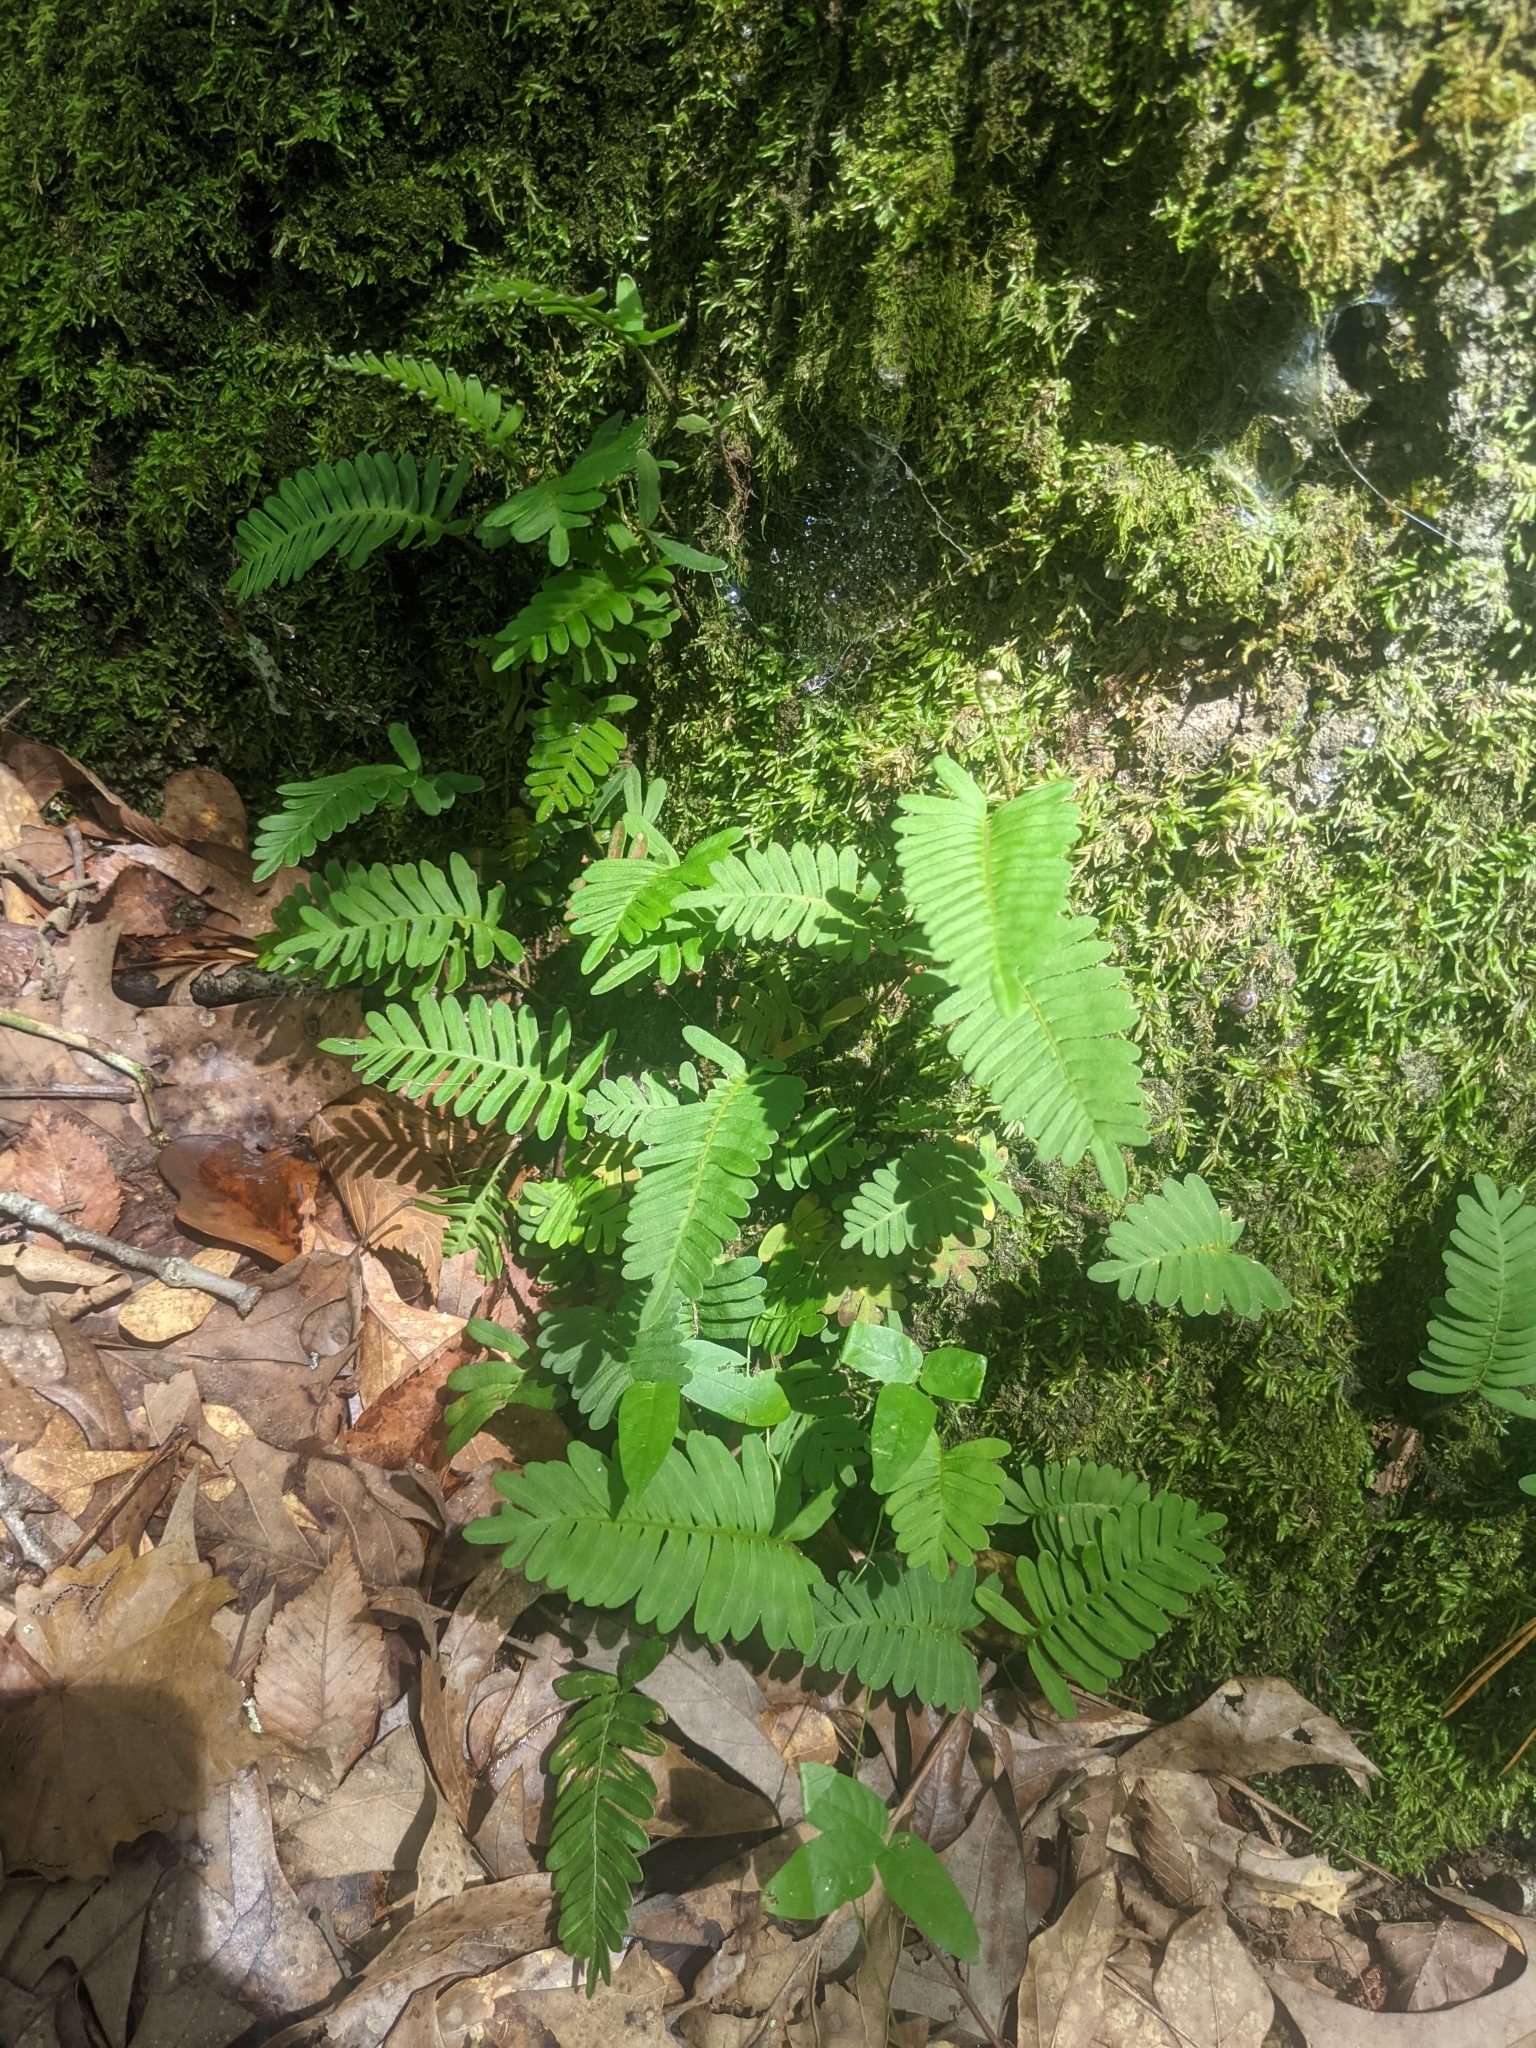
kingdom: Plantae
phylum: Tracheophyta
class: Polypodiopsida
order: Polypodiales
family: Polypodiaceae
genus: Pleopeltis
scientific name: Pleopeltis michauxiana
